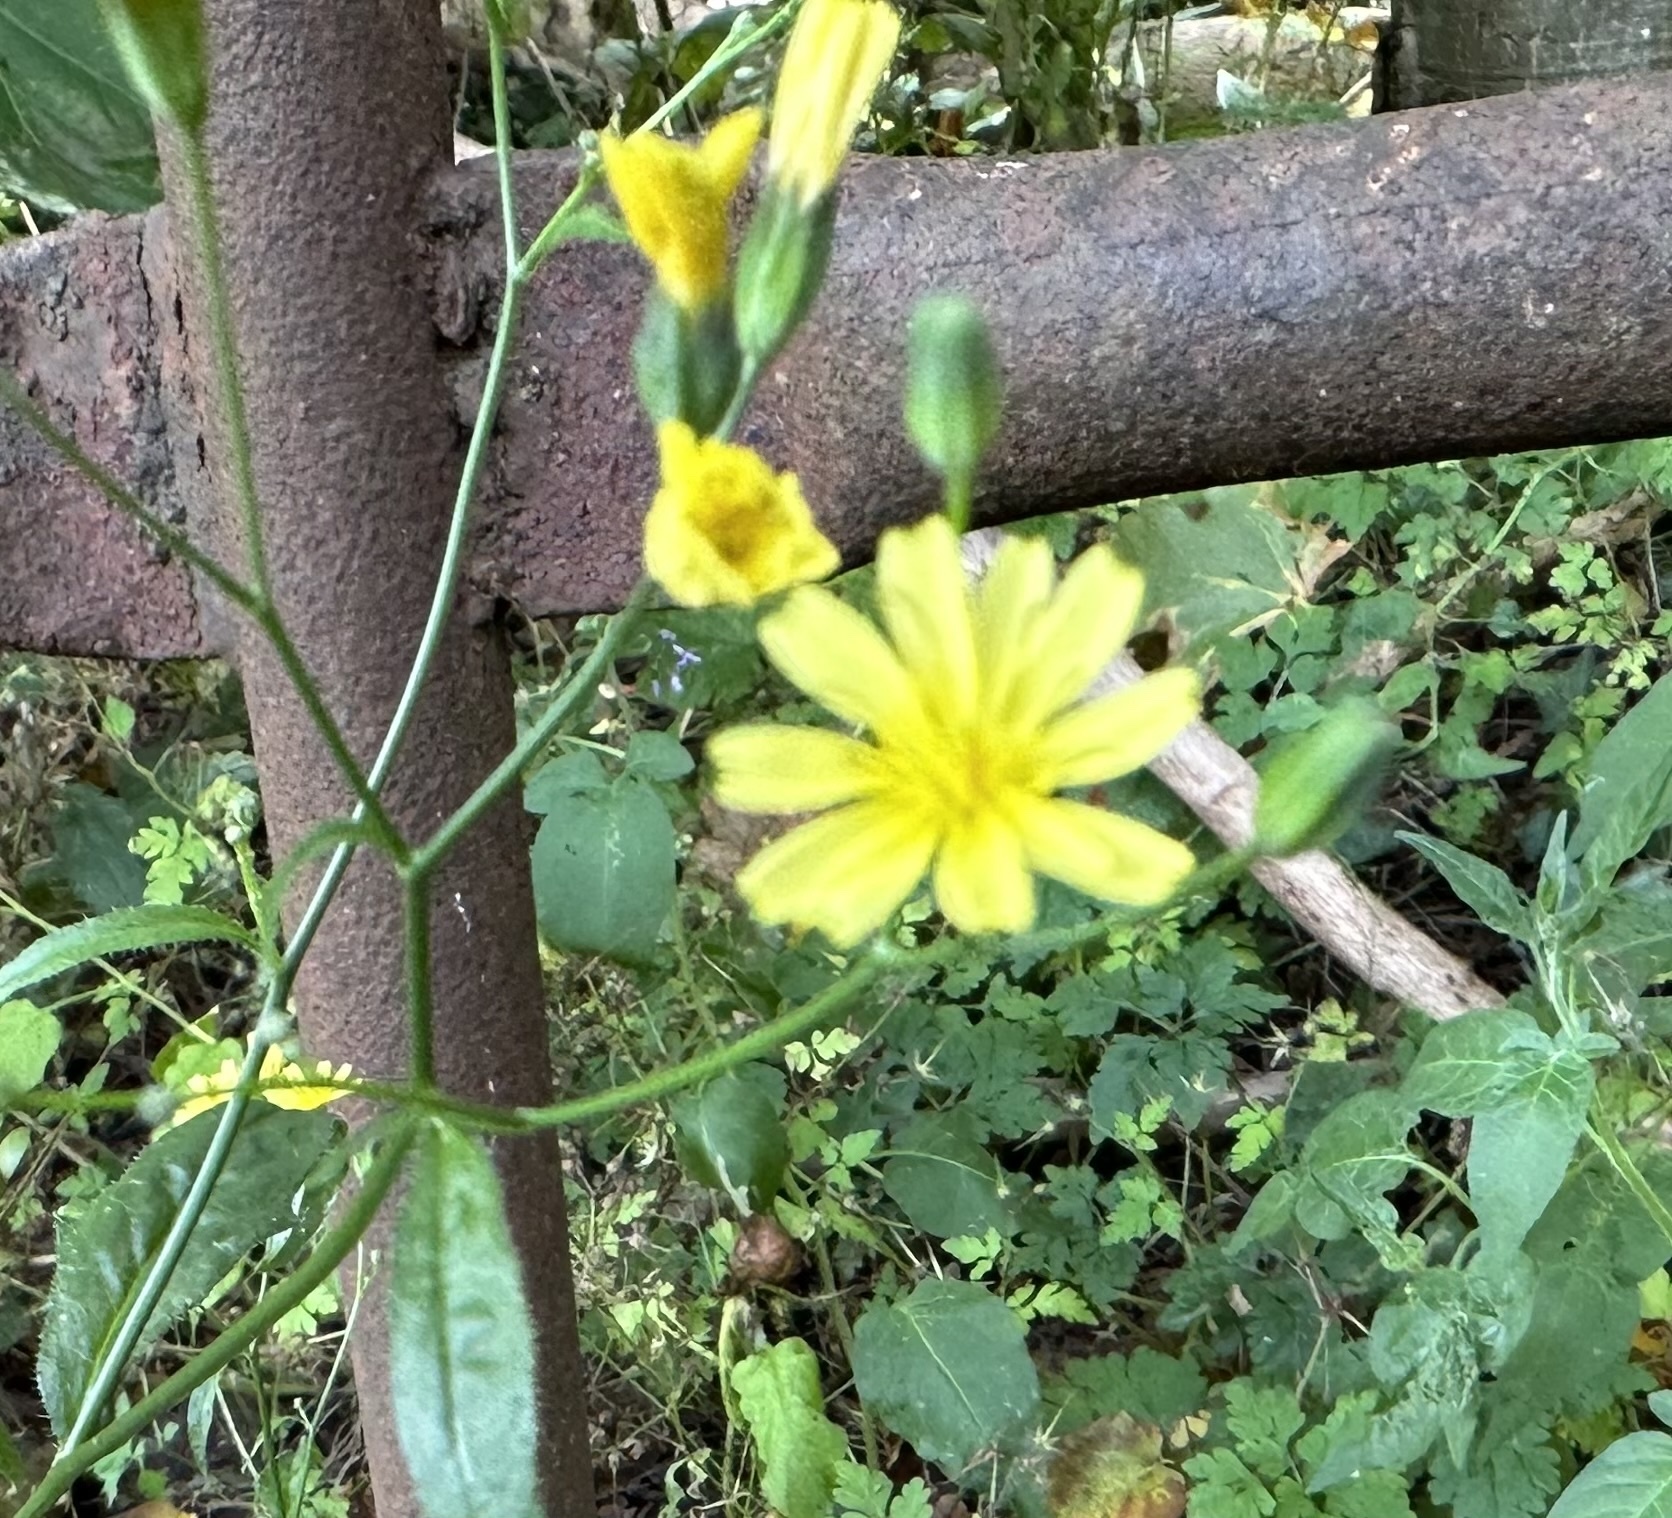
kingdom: Plantae
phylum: Tracheophyta
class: Magnoliopsida
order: Asterales
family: Asteraceae
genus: Lapsana
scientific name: Lapsana communis
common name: Nipplewort
